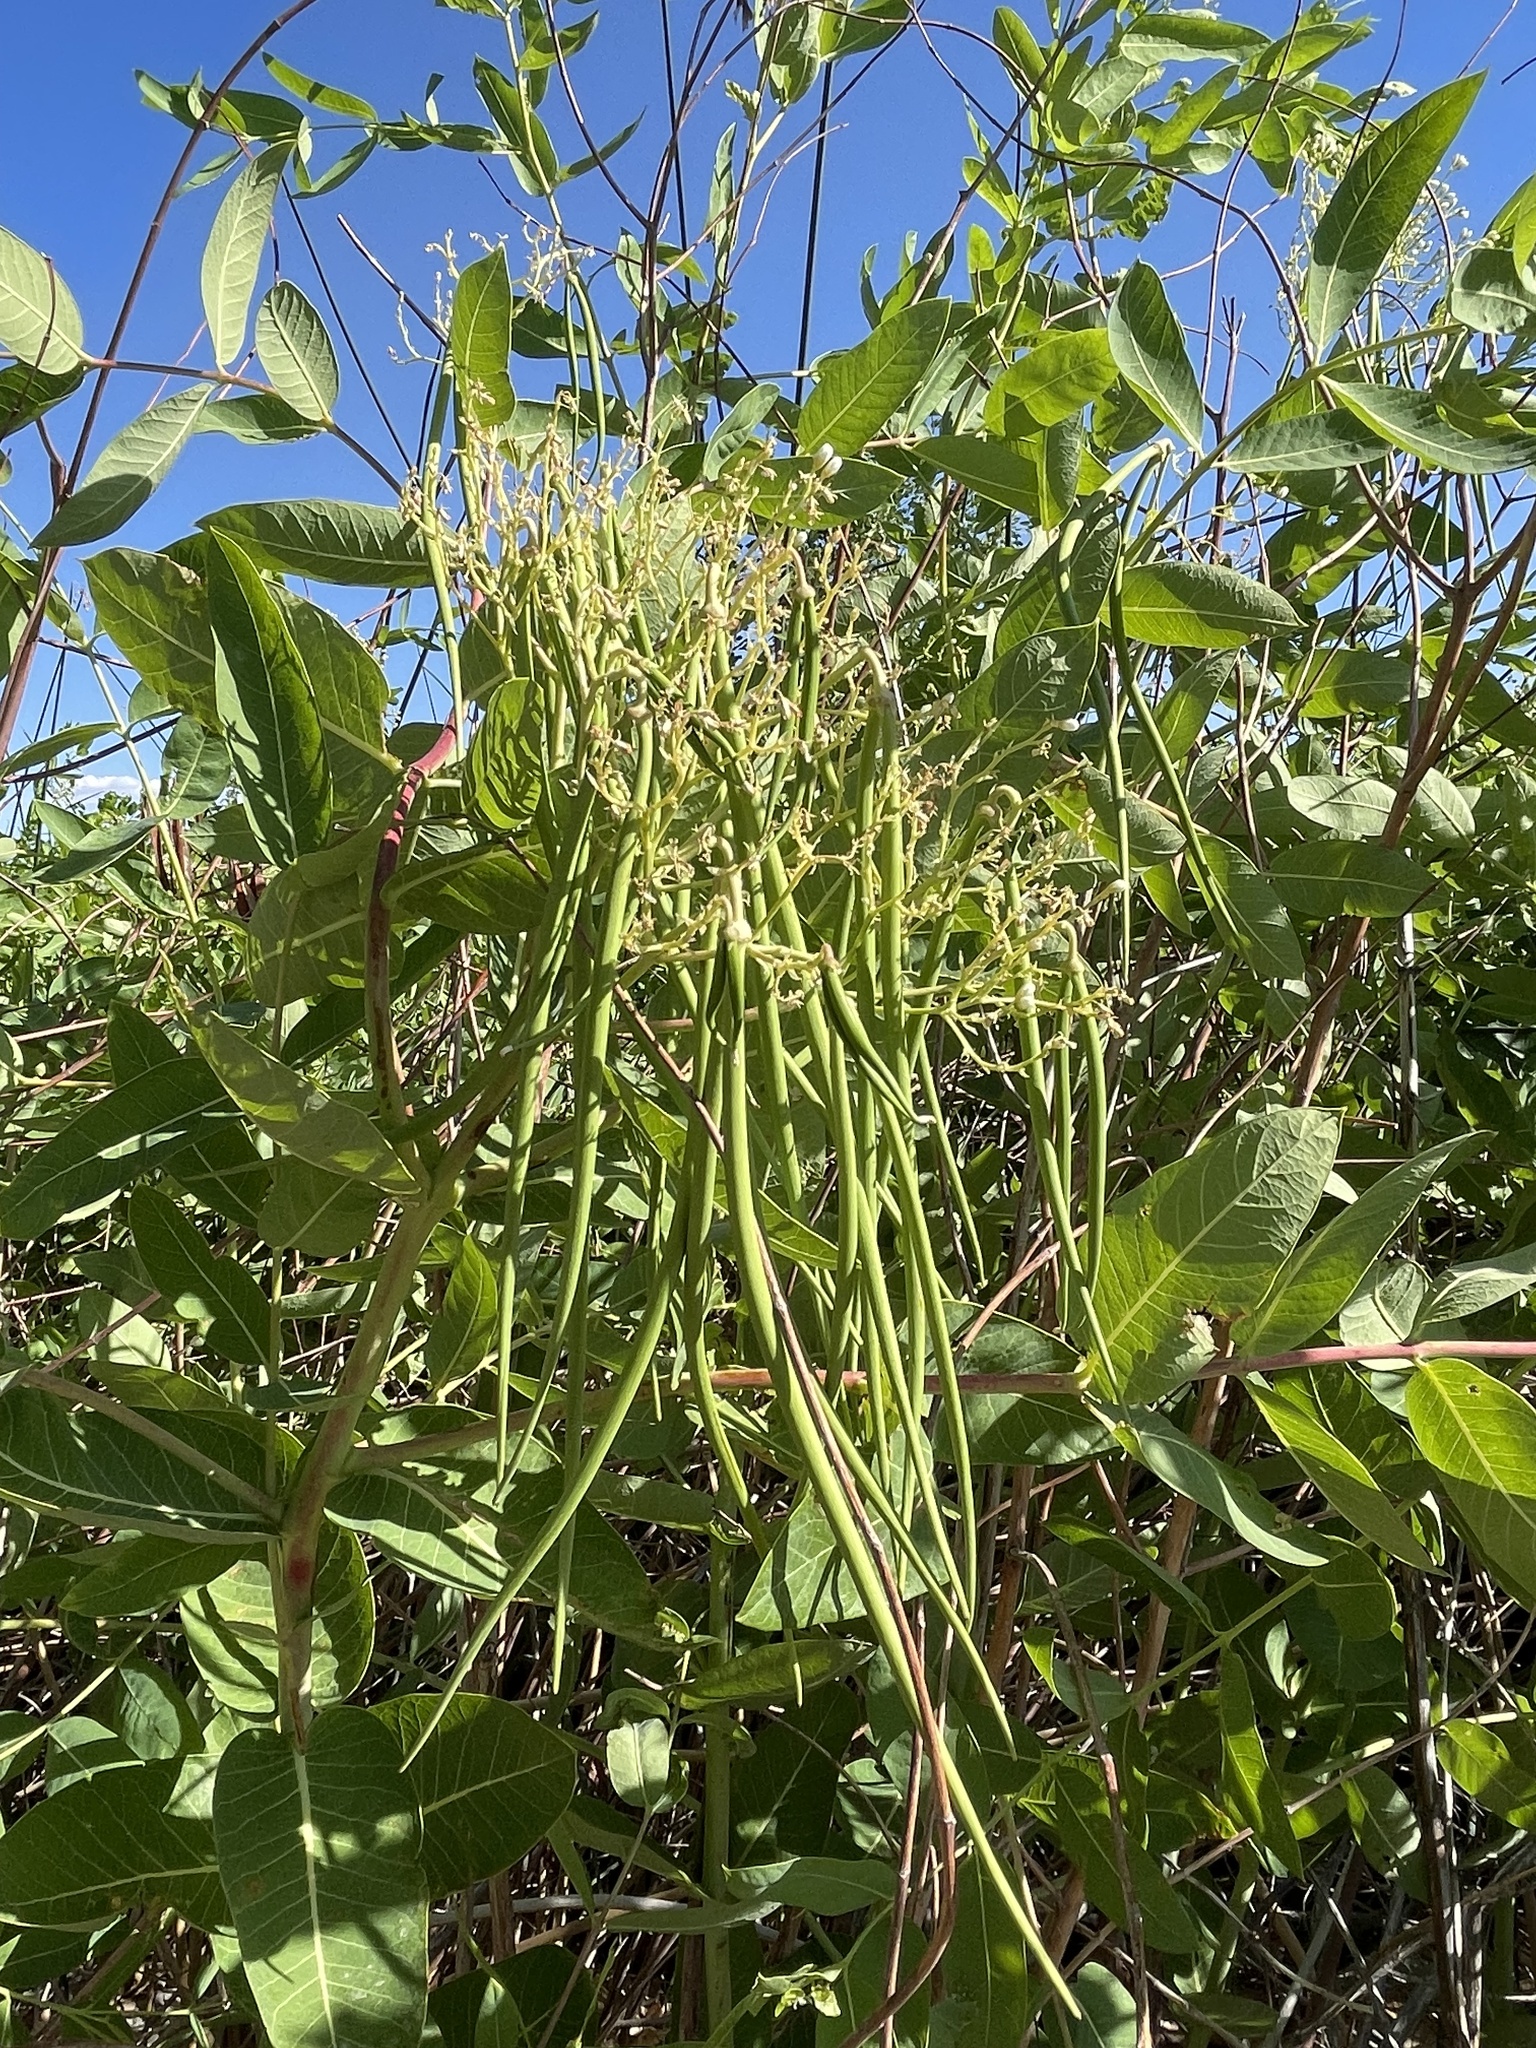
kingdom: Plantae
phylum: Tracheophyta
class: Magnoliopsida
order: Gentianales
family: Apocynaceae
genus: Apocynum
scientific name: Apocynum cannabinum
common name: Hemp dogbane
